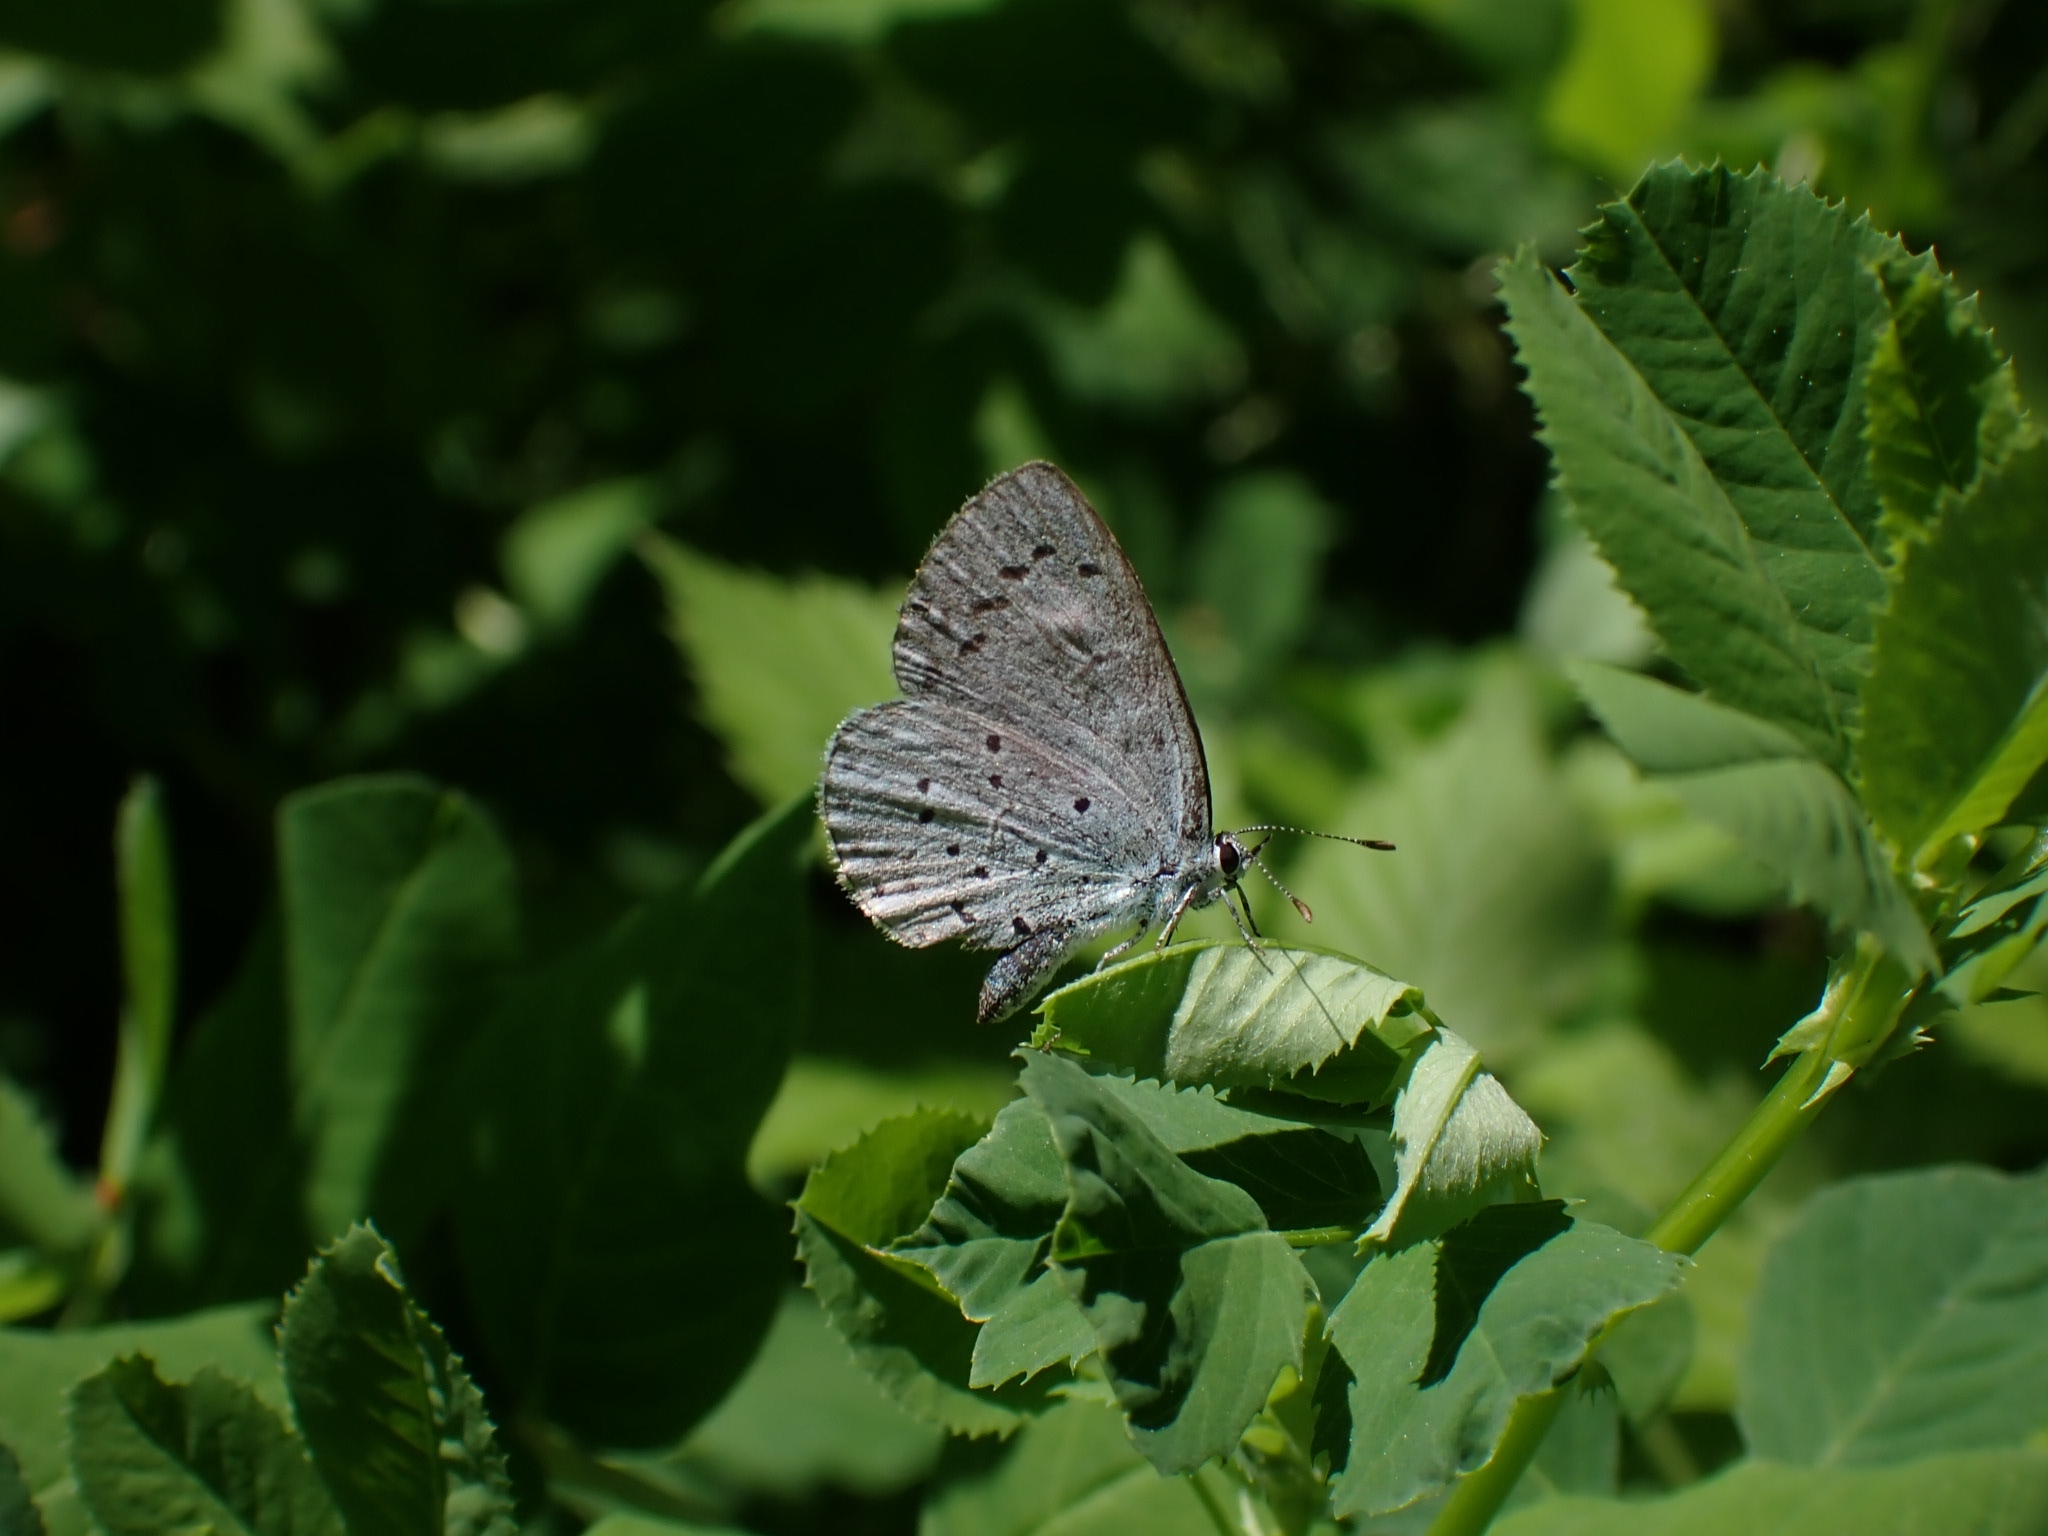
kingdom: Animalia
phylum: Arthropoda
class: Insecta
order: Lepidoptera
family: Lycaenidae
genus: Celastrina
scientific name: Celastrina argiolus
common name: Holly blue
